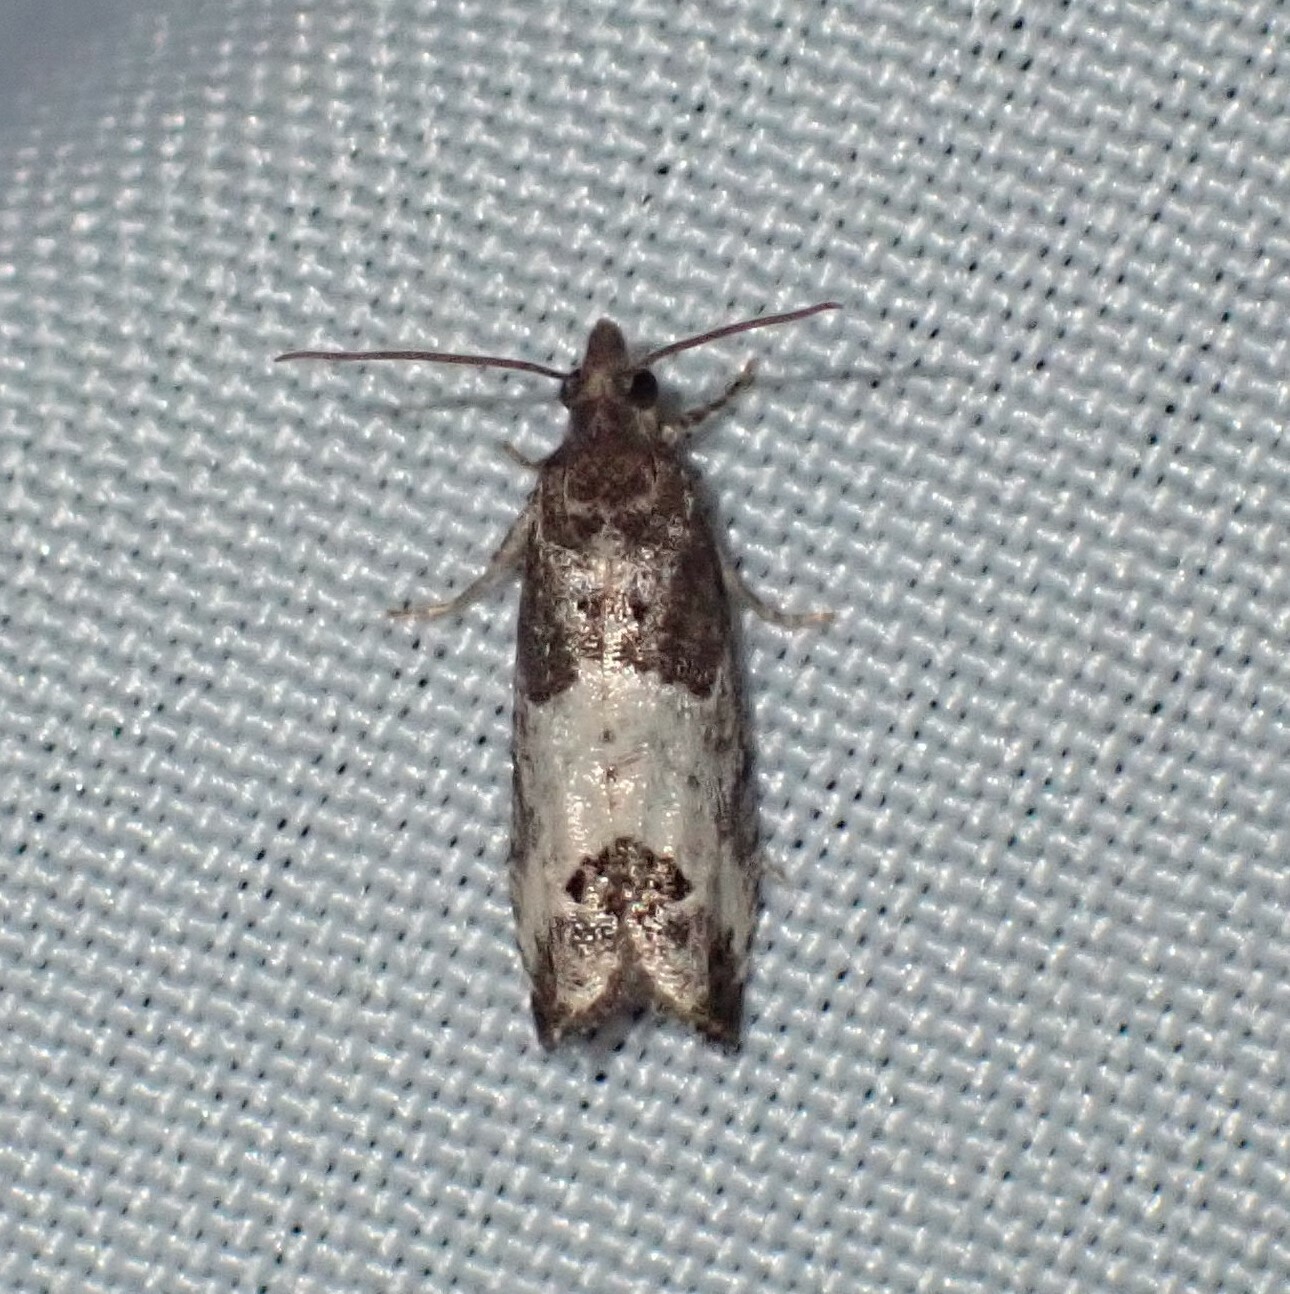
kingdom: Animalia
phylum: Arthropoda
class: Insecta
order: Lepidoptera
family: Tortricidae
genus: Spilonota
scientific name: Spilonota ocellana
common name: Bud moth
